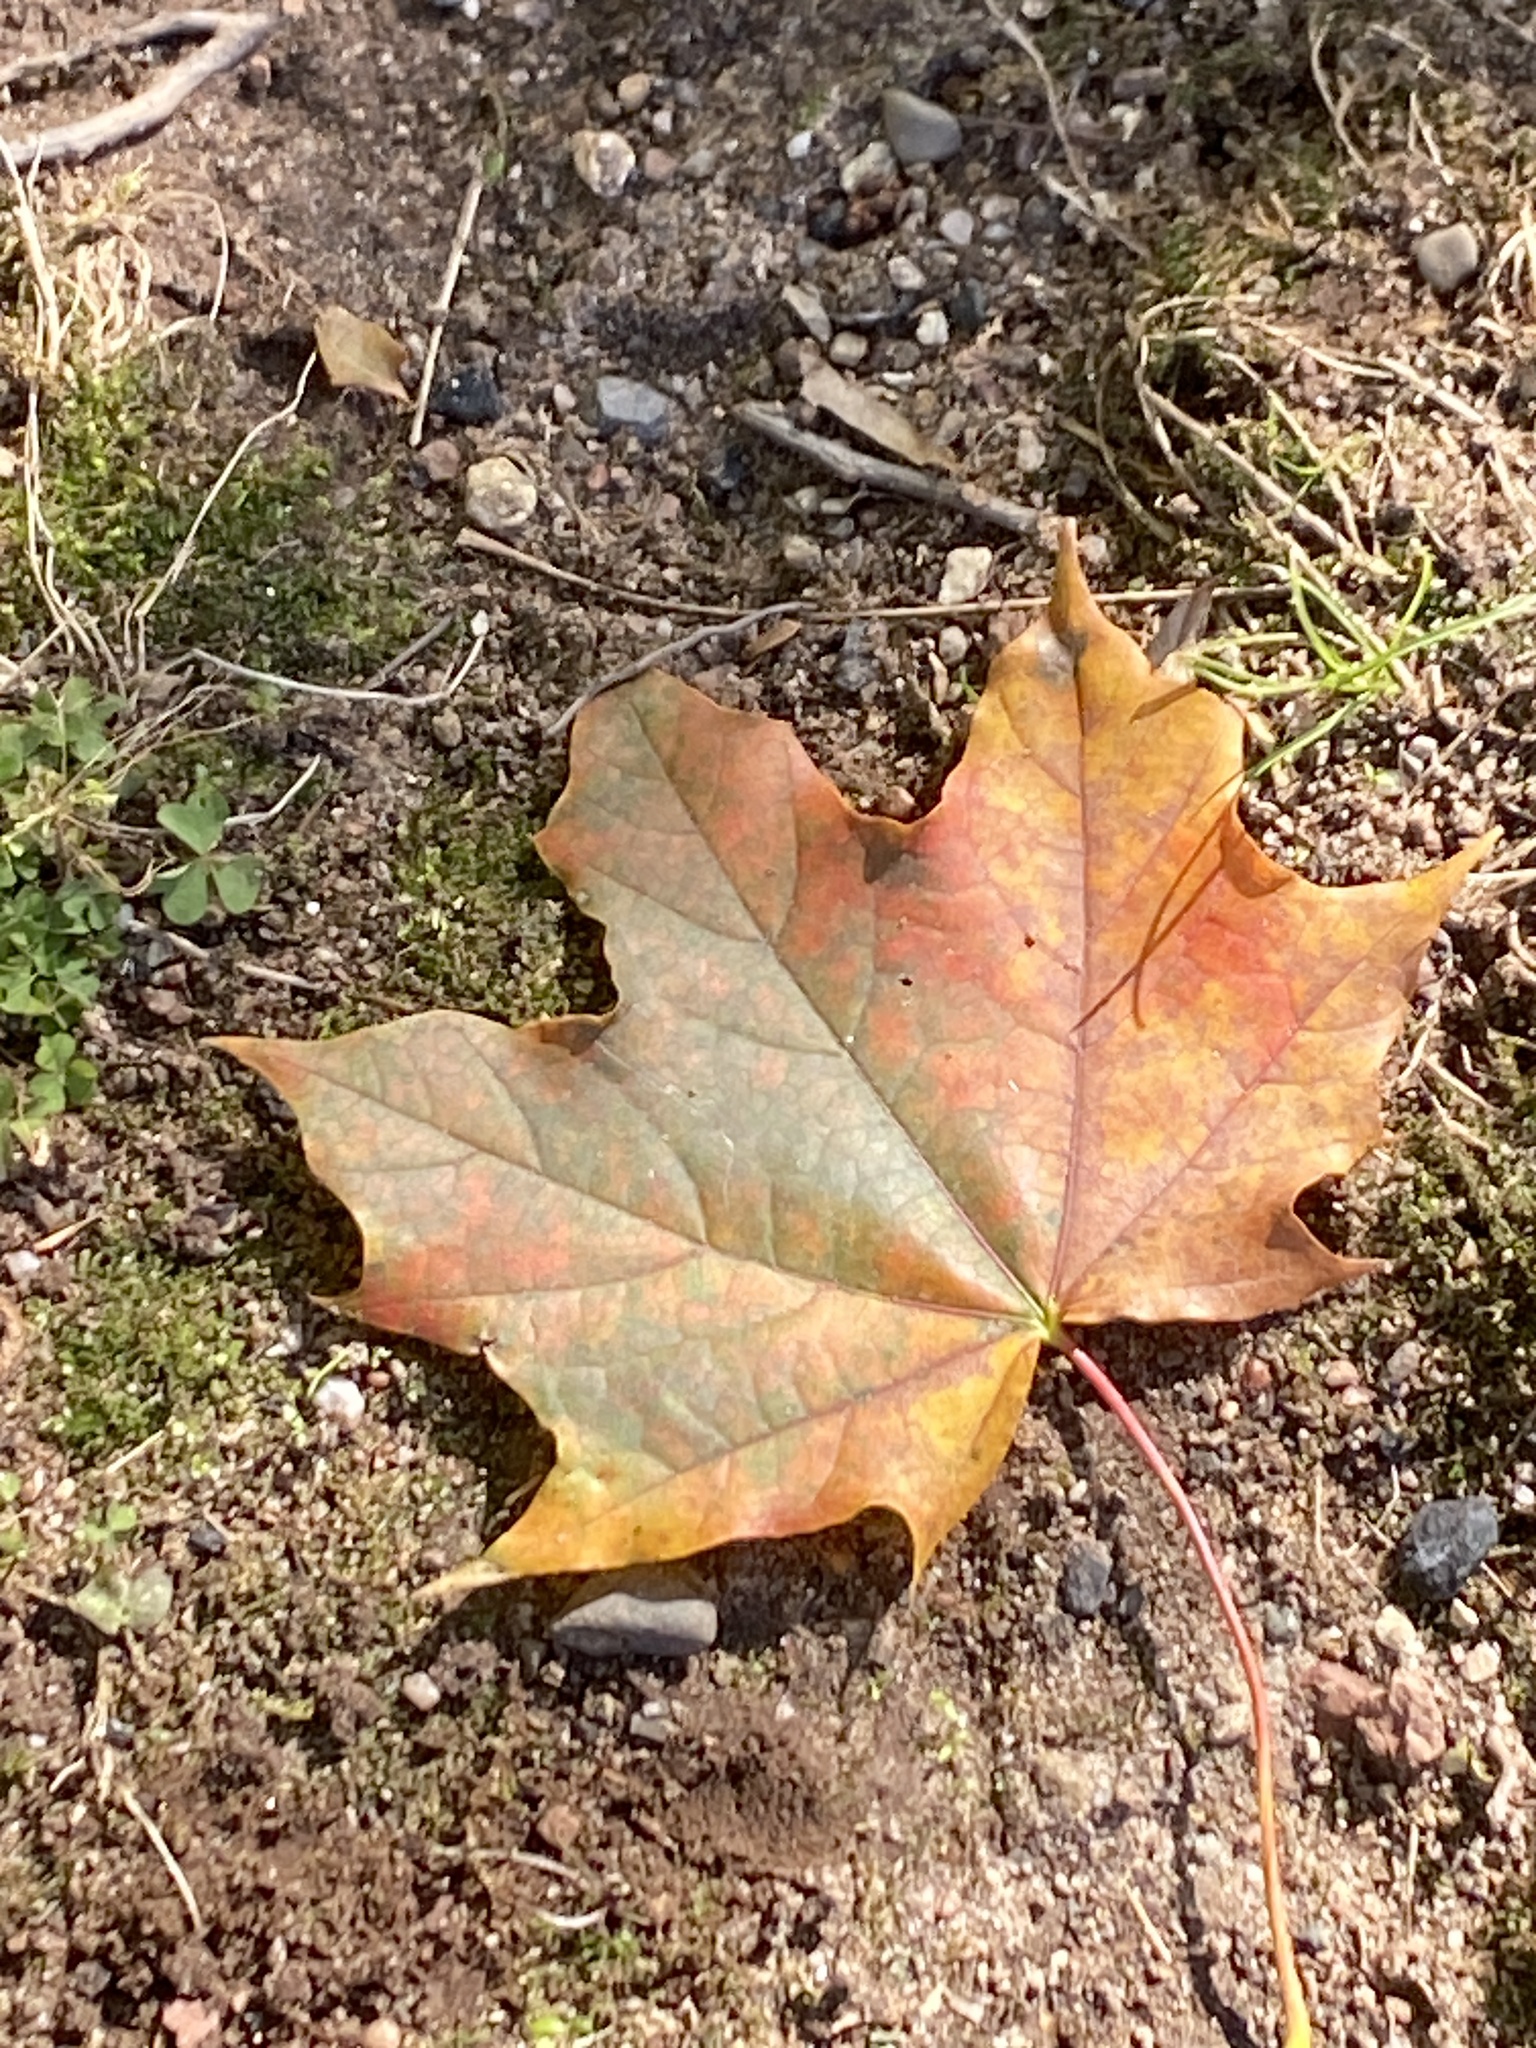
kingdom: Plantae
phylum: Tracheophyta
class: Magnoliopsida
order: Sapindales
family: Sapindaceae
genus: Acer
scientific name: Acer platanoides
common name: Norway maple
